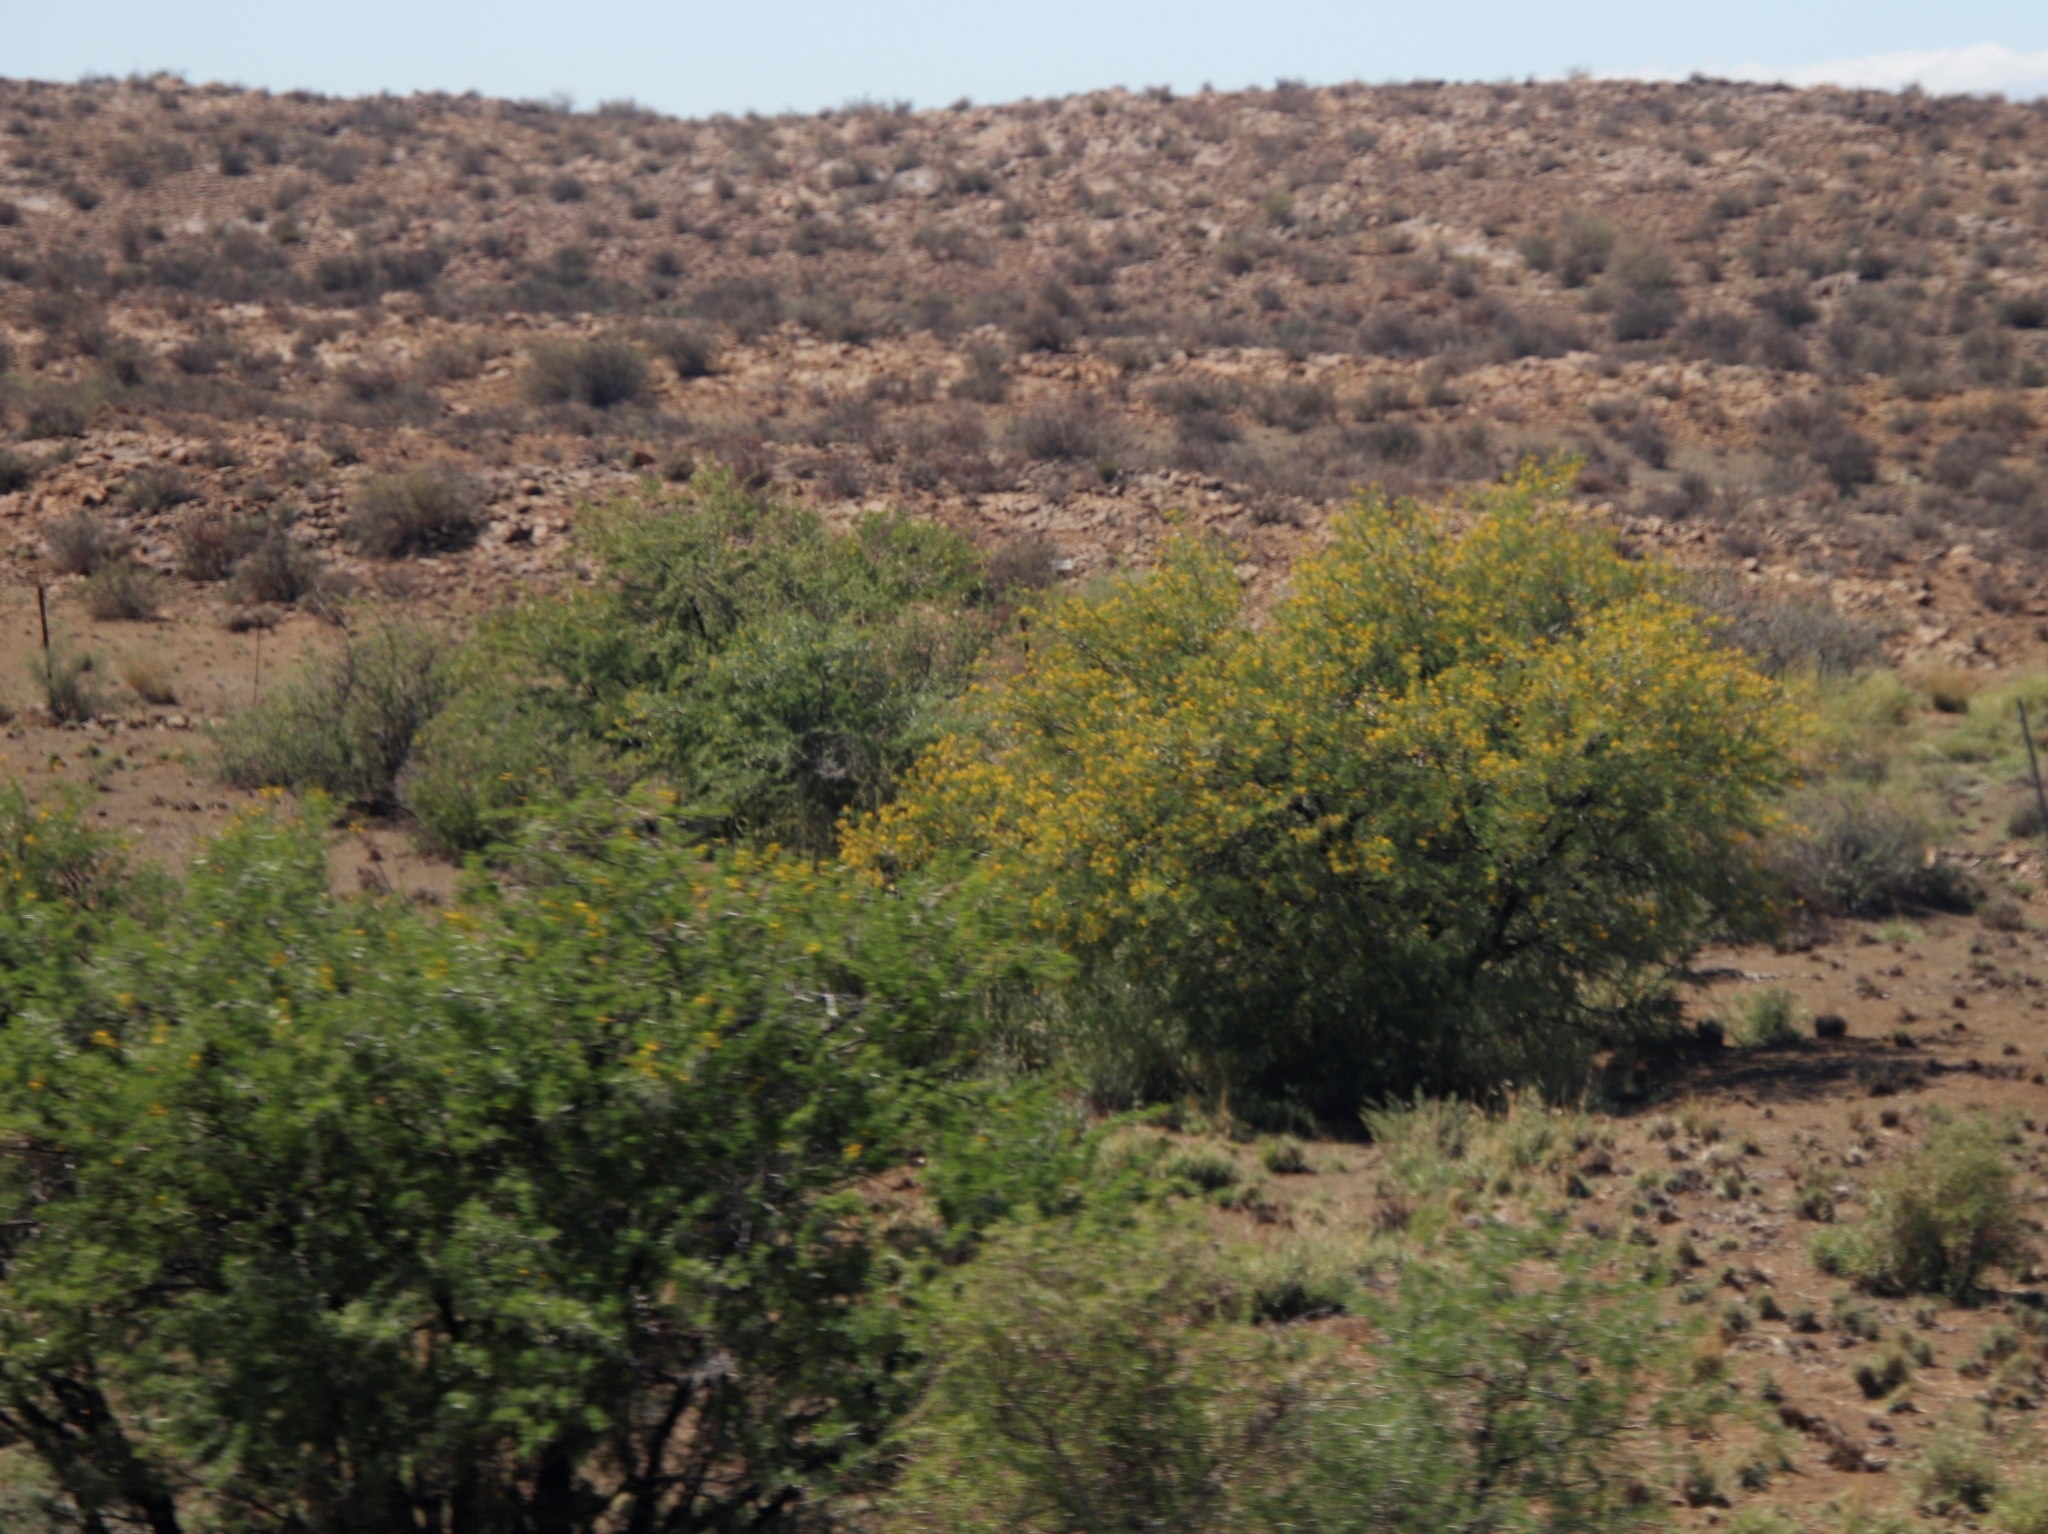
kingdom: Plantae
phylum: Tracheophyta
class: Magnoliopsida
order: Fabales
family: Fabaceae
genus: Vachellia
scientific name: Vachellia karroo
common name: Sweet thorn
